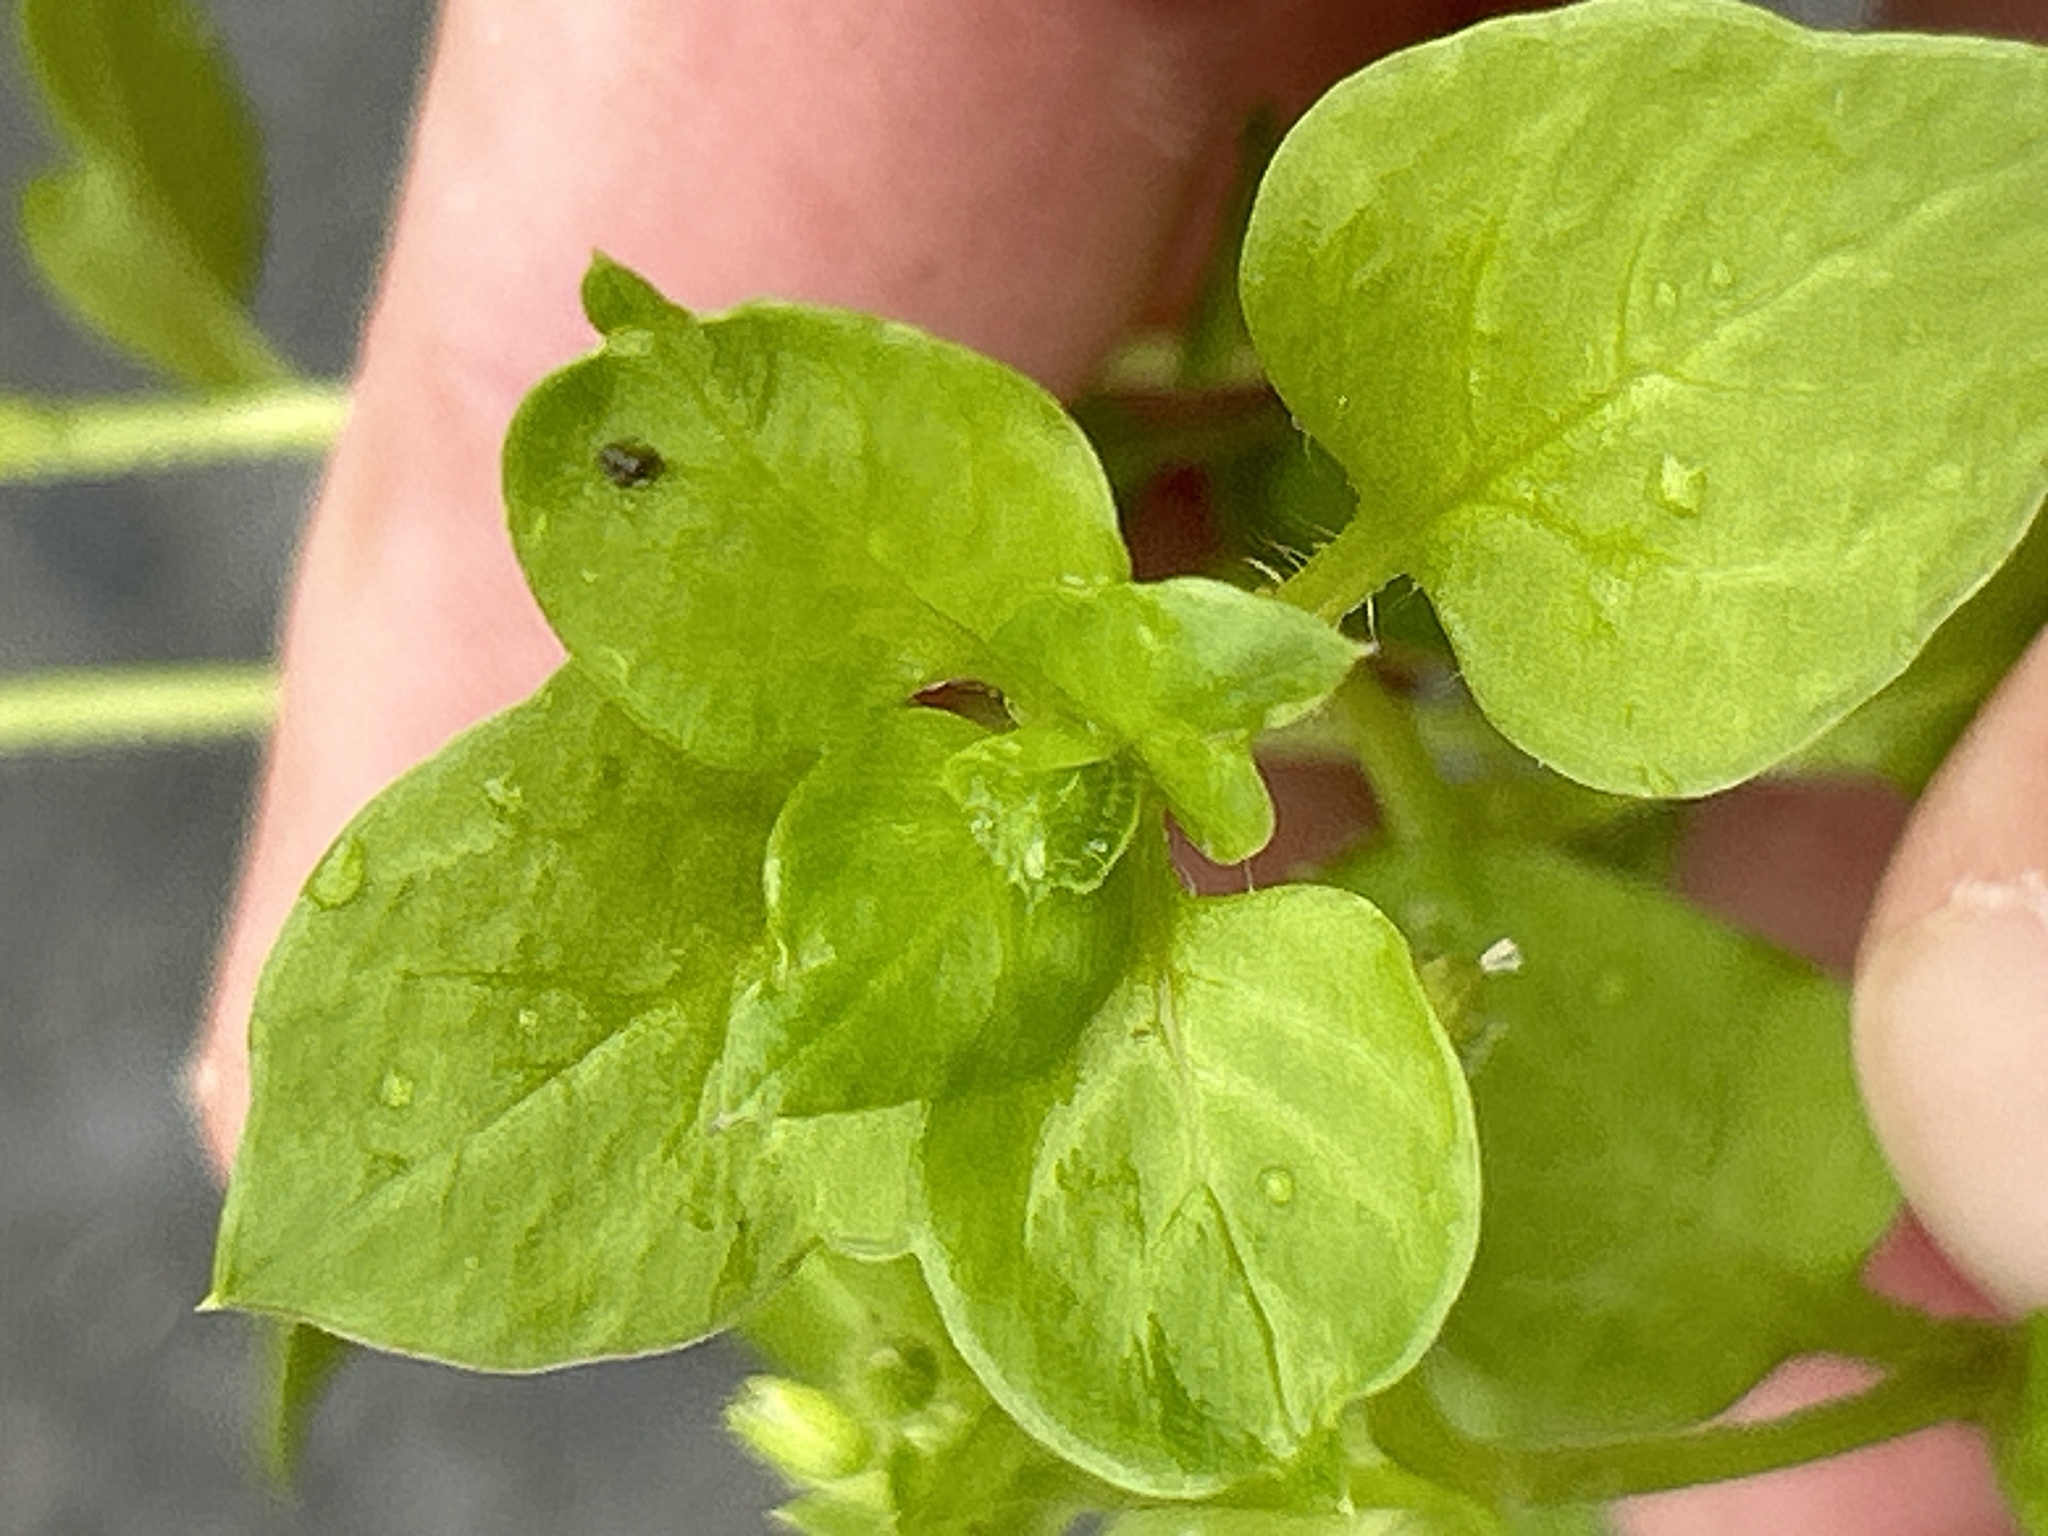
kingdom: Plantae
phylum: Tracheophyta
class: Magnoliopsida
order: Caryophyllales
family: Caryophyllaceae
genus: Stellaria
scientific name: Stellaria media
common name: Common chickweed
